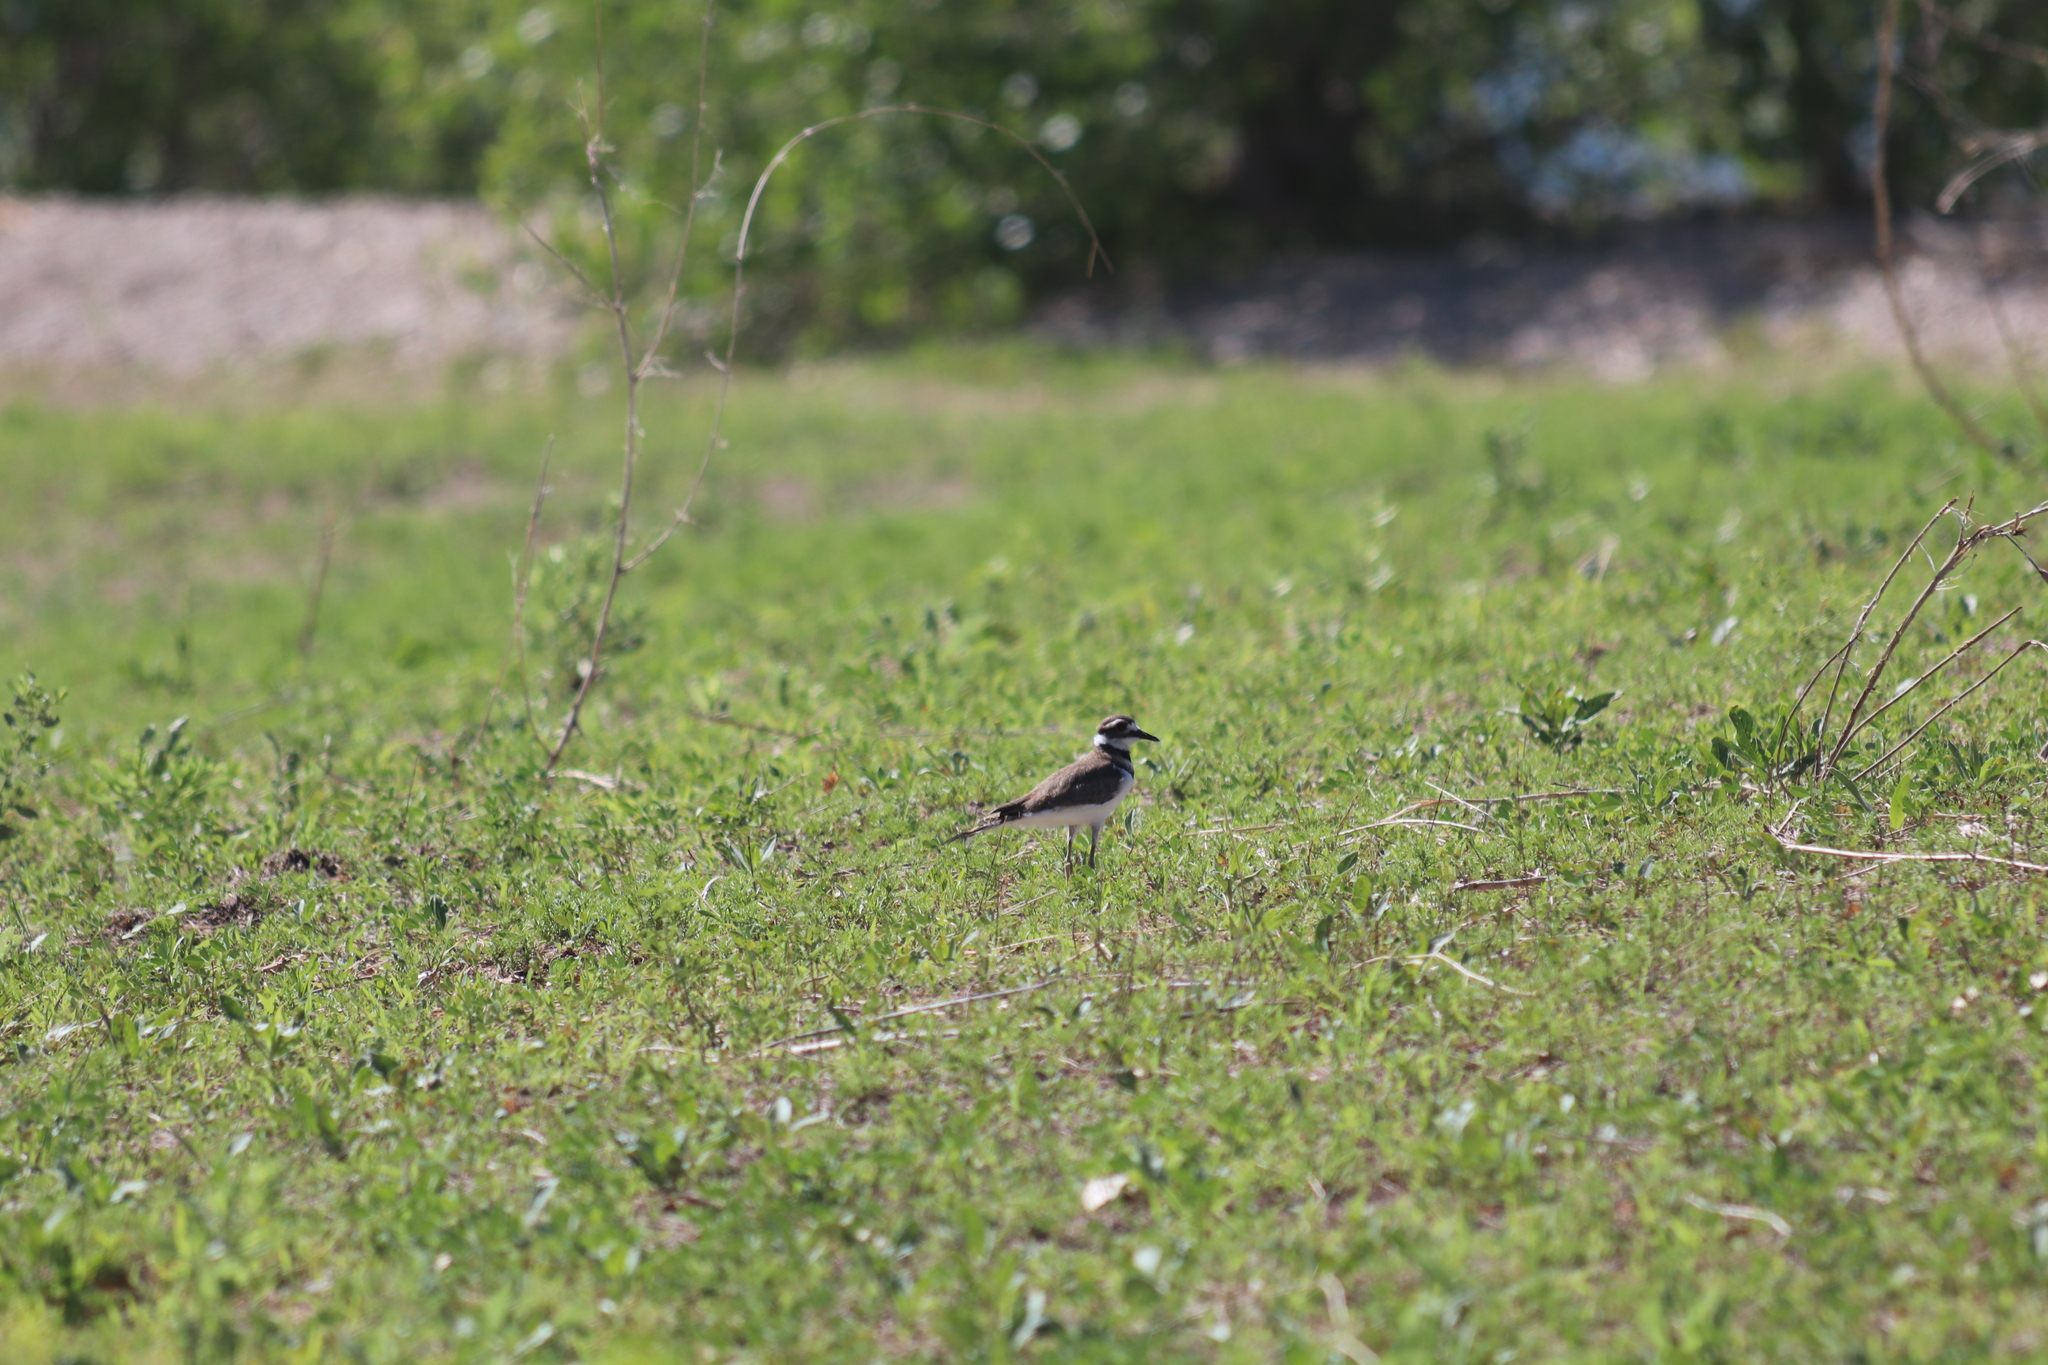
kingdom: Animalia
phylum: Chordata
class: Aves
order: Charadriiformes
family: Charadriidae
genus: Charadrius
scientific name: Charadrius vociferus
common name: Killdeer
